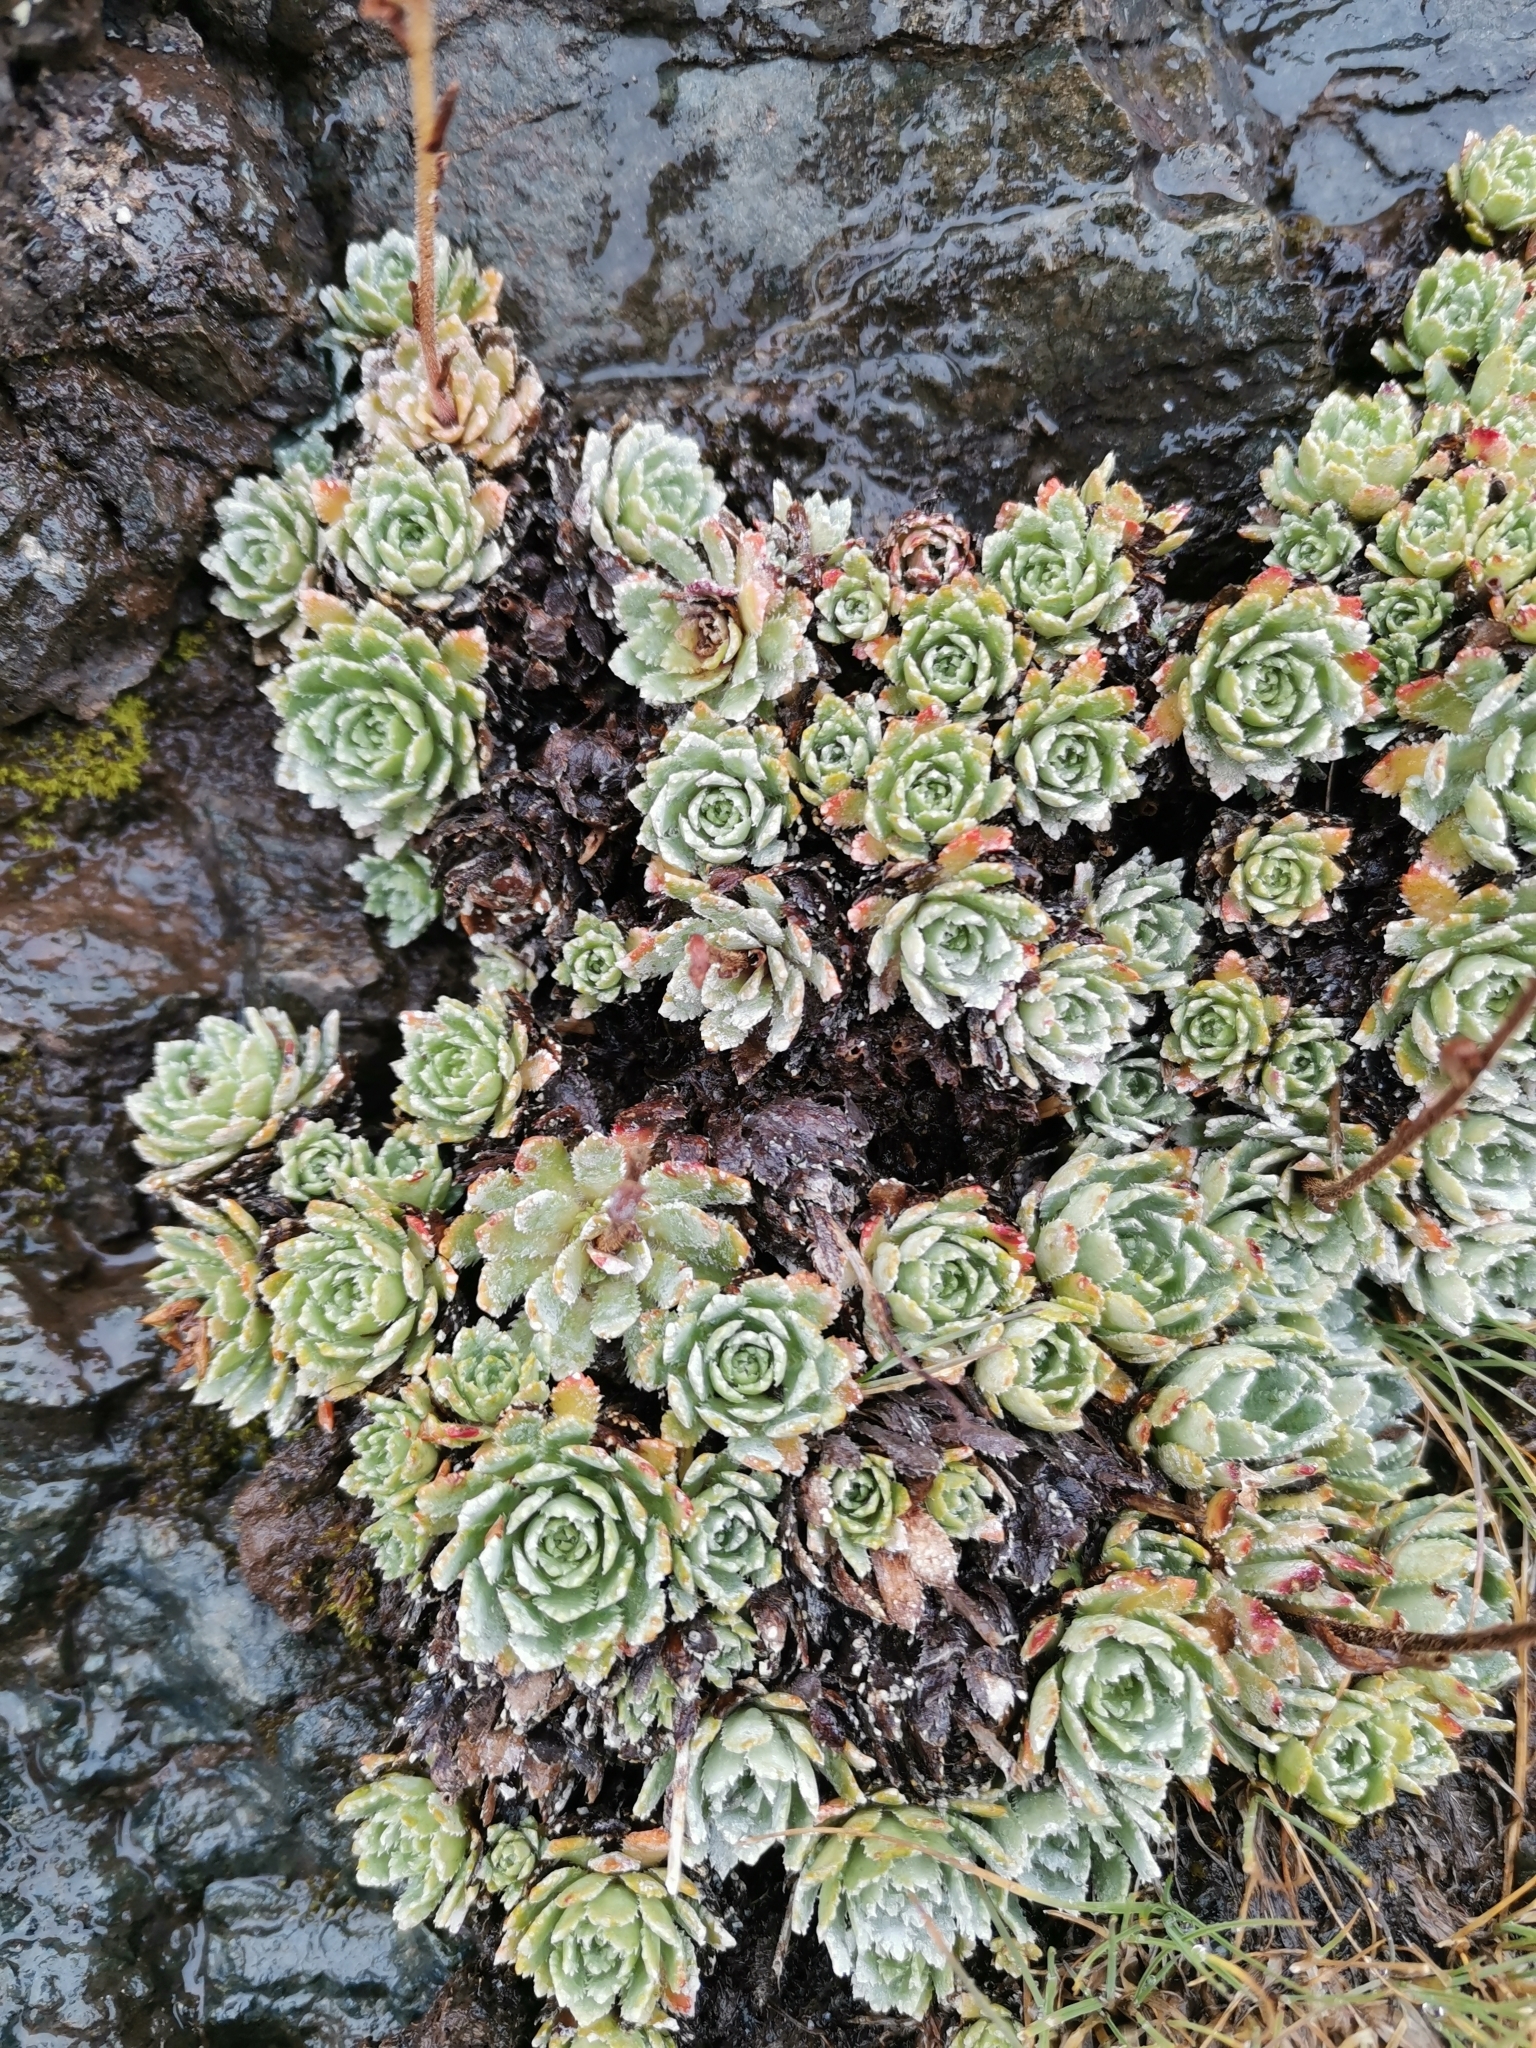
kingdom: Plantae
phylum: Tracheophyta
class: Magnoliopsida
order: Saxifragales
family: Saxifragaceae
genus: Saxifraga
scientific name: Saxifraga paniculata
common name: Livelong saxifrage
